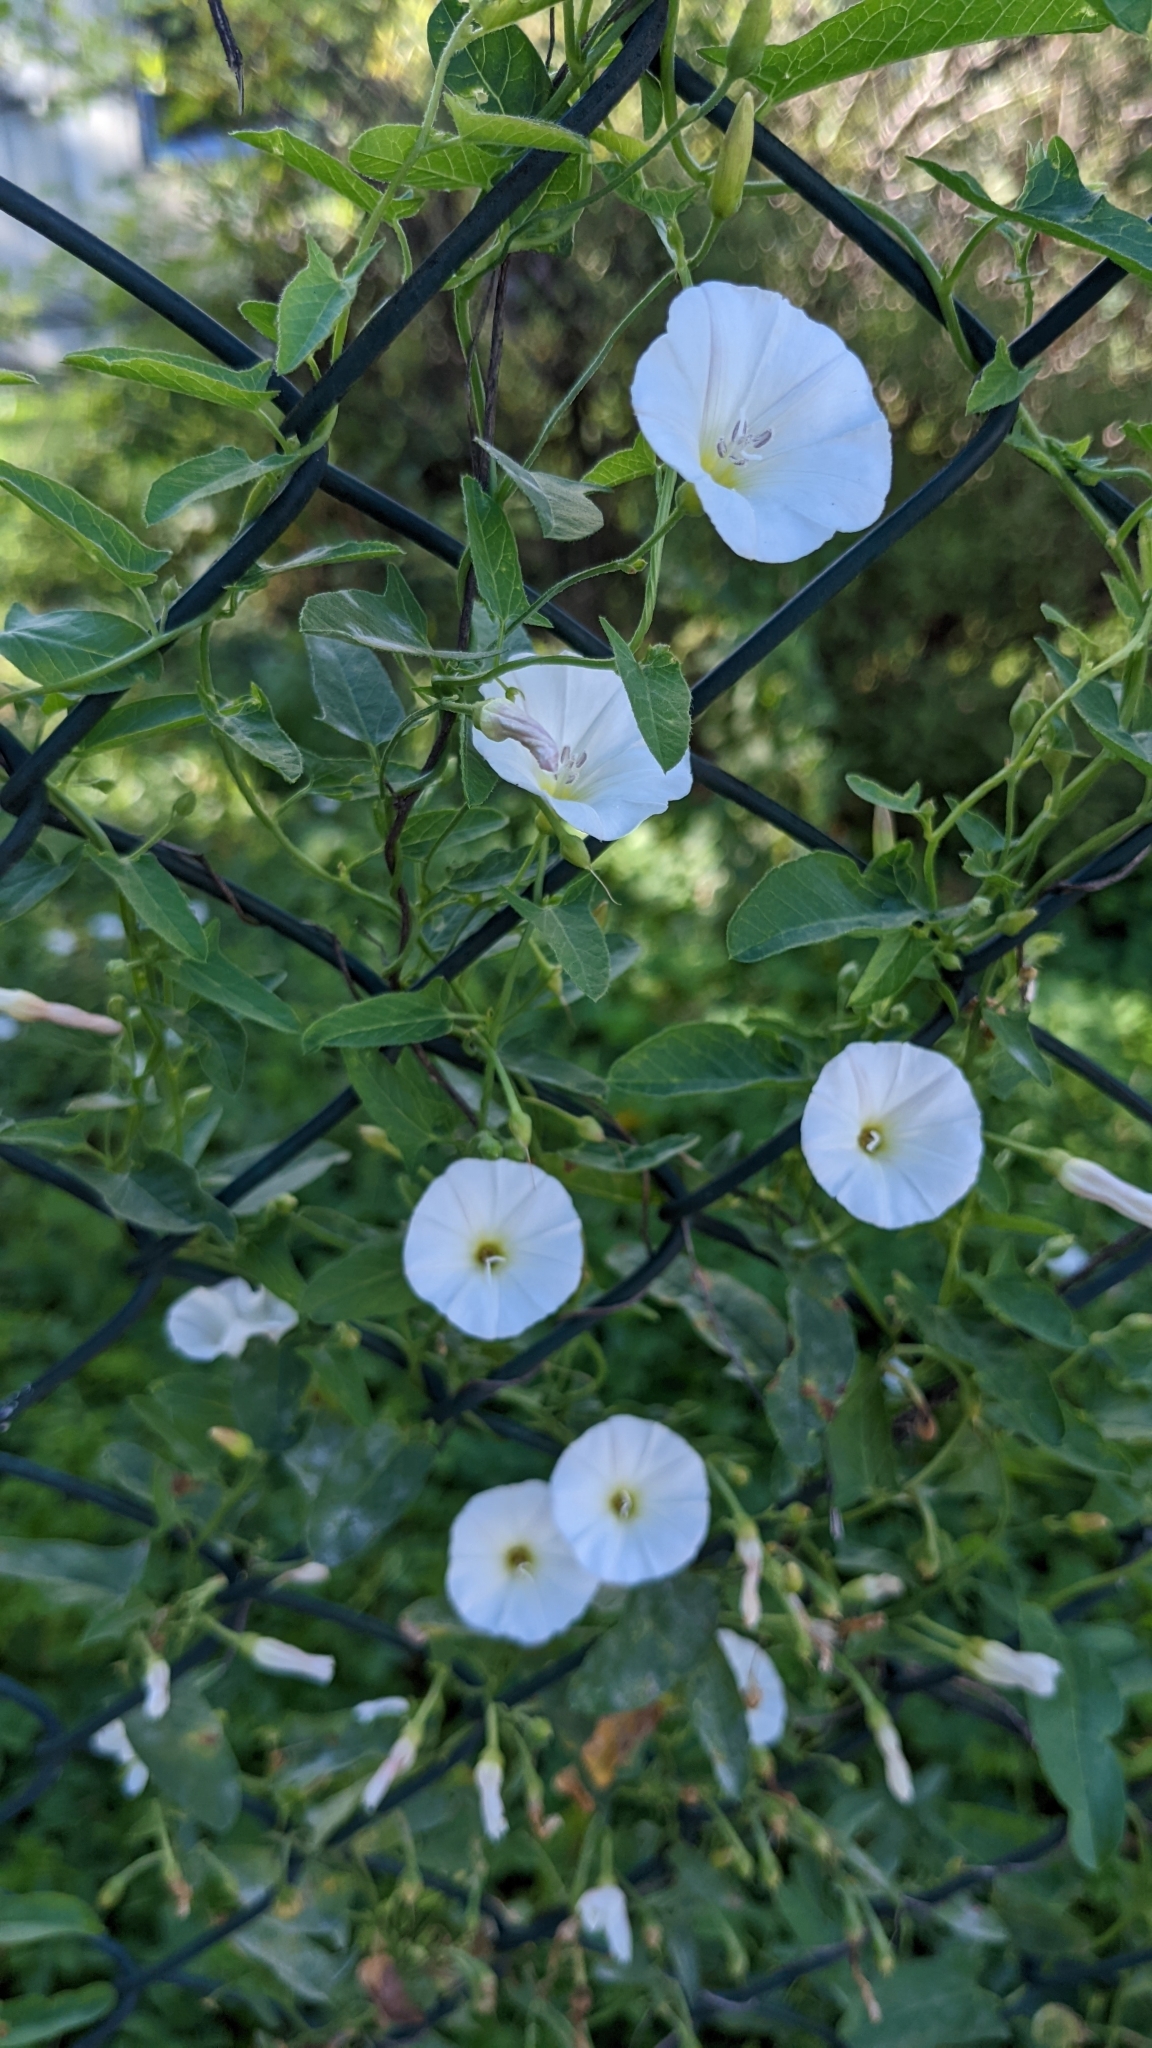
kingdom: Plantae
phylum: Tracheophyta
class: Magnoliopsida
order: Solanales
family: Convolvulaceae
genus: Convolvulus
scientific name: Convolvulus arvensis
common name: Field bindweed
